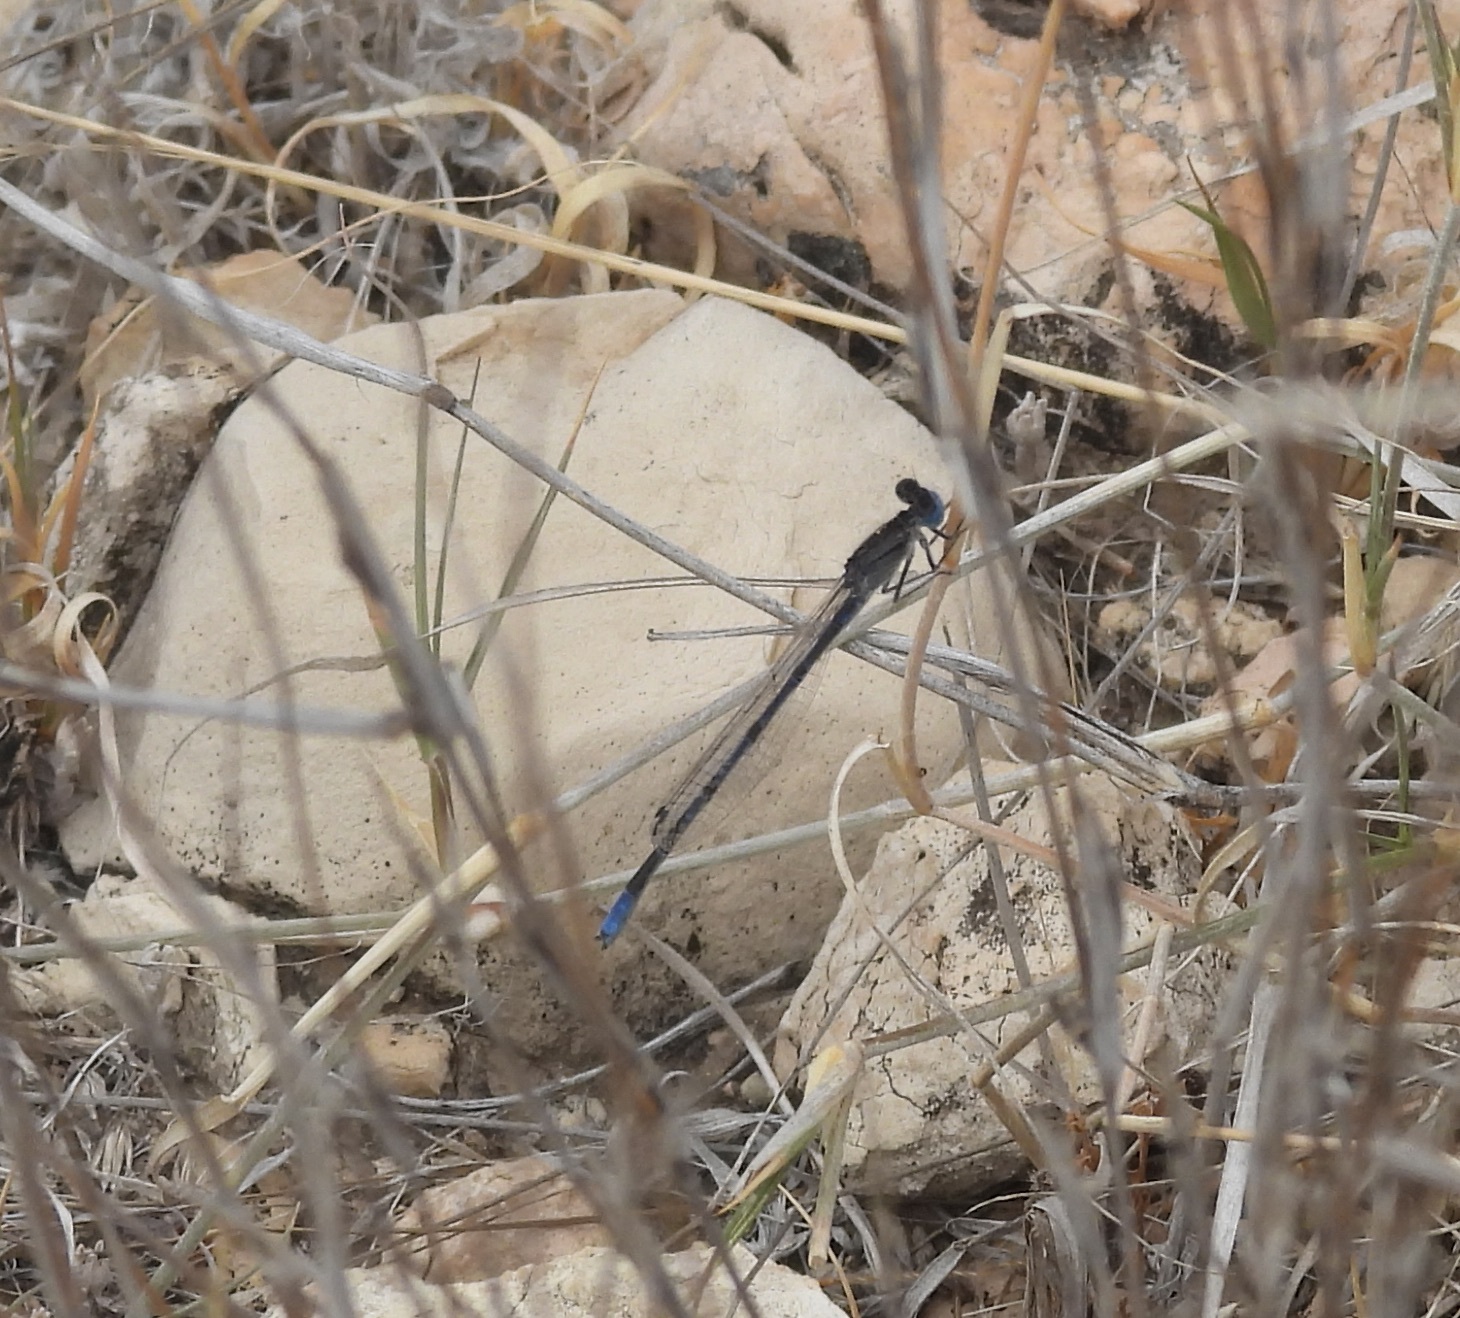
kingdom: Animalia
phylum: Arthropoda
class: Insecta
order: Odonata
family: Coenagrionidae
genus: Enallagma
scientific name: Enallagma civile
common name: Damselfly
